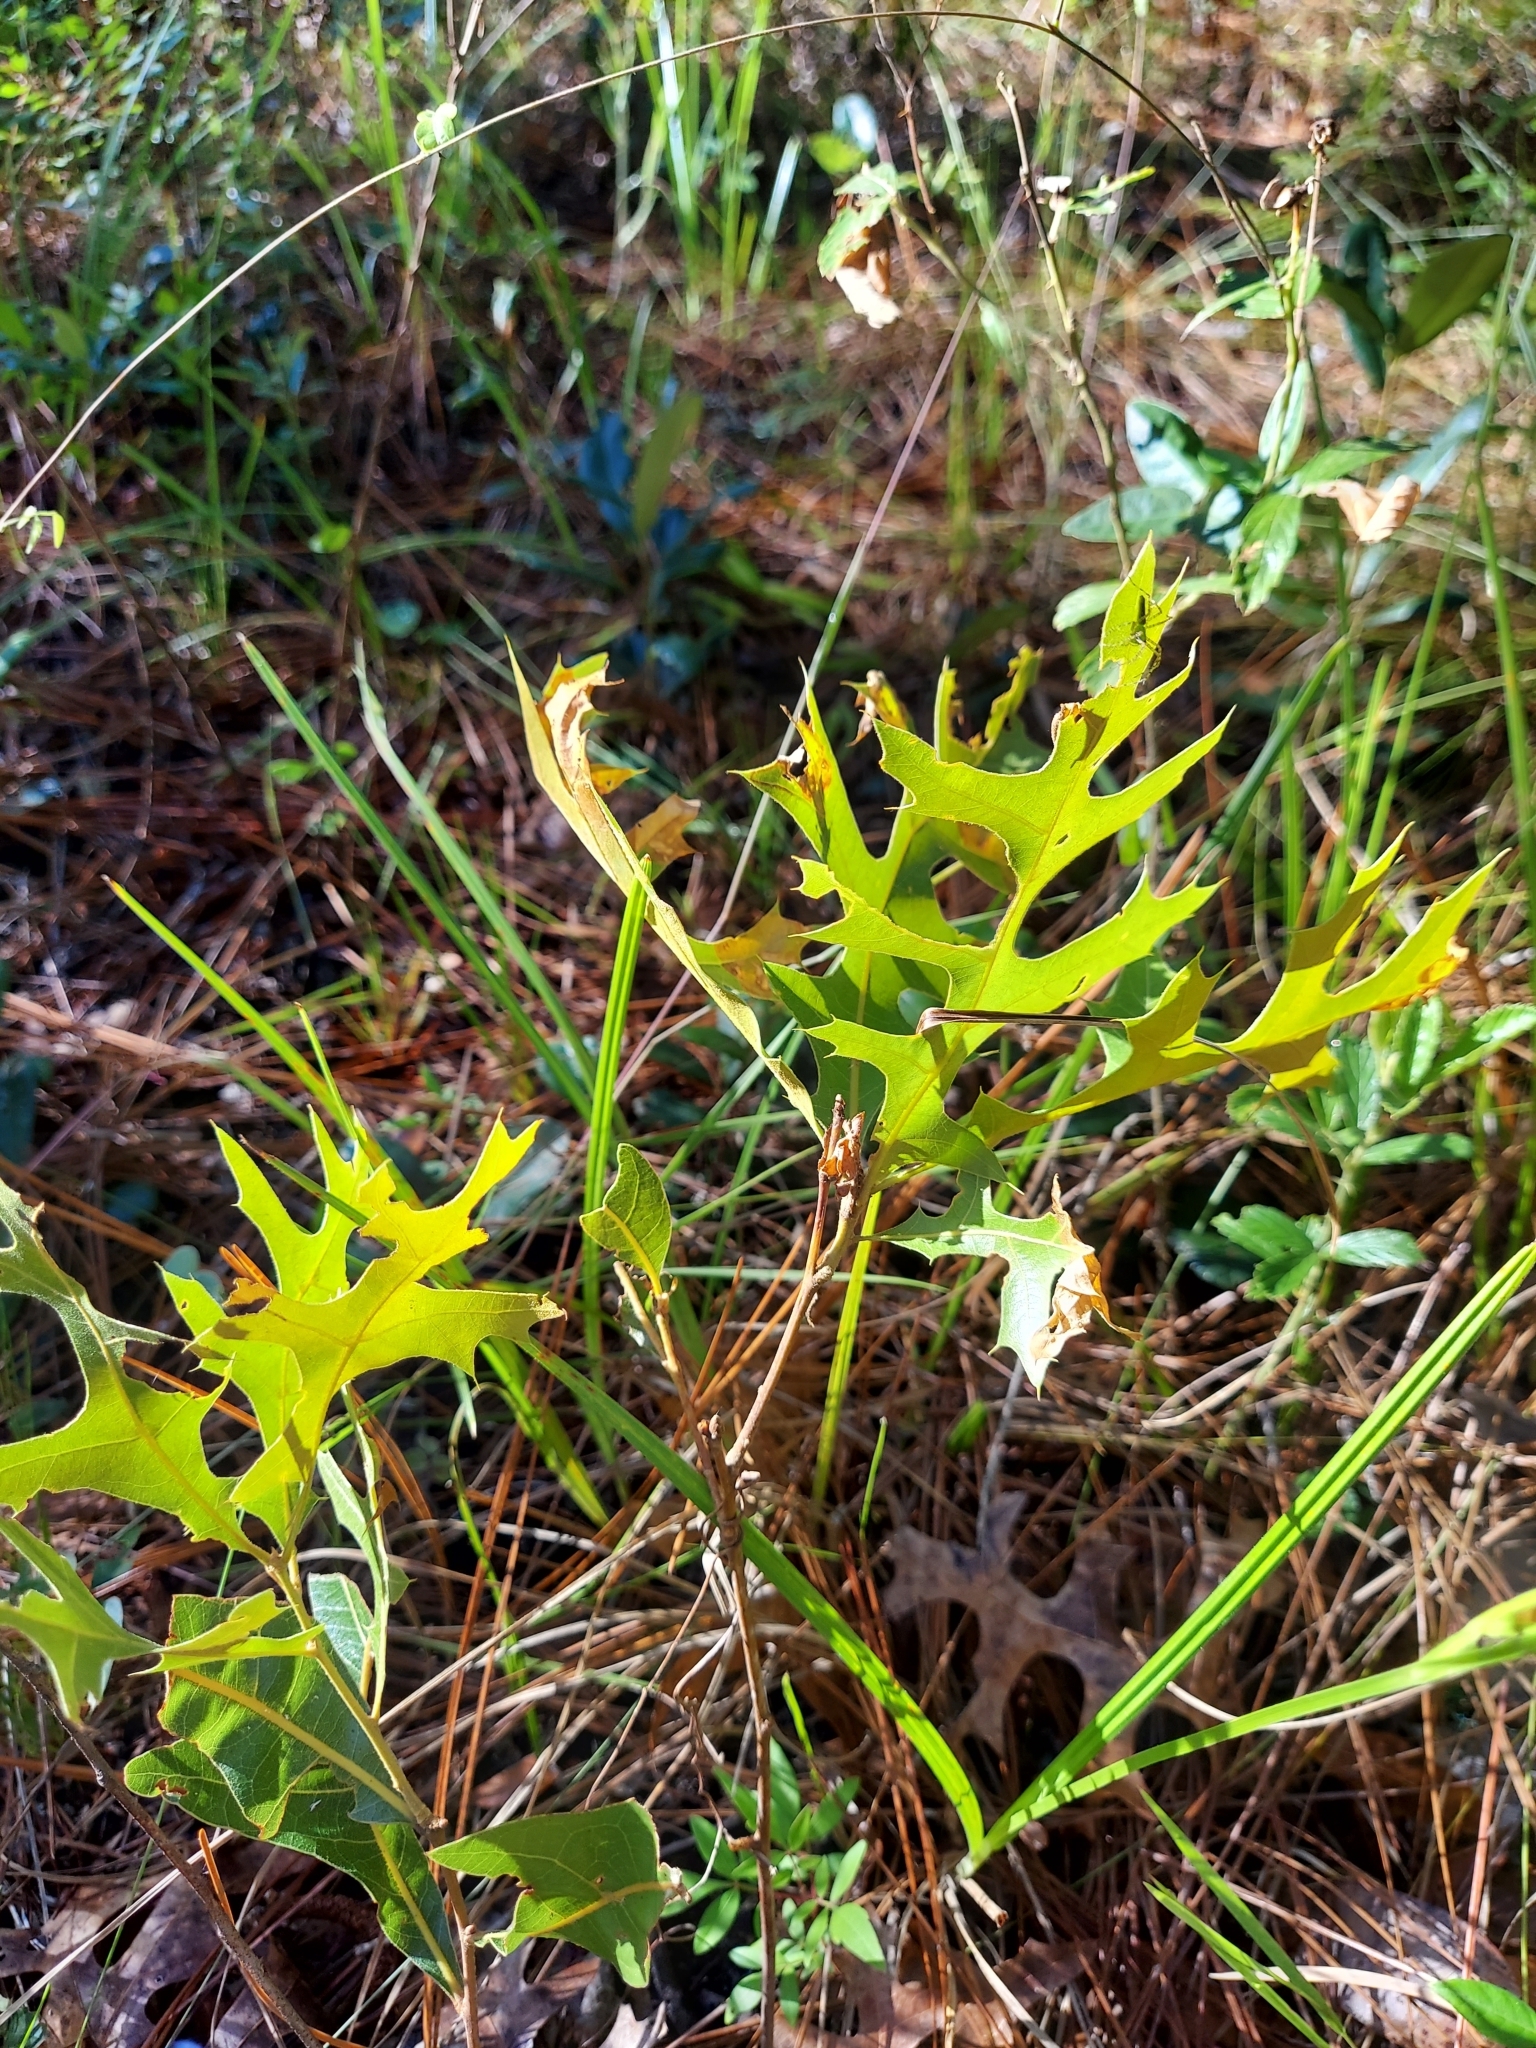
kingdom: Plantae
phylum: Tracheophyta
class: Magnoliopsida
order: Fagales
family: Fagaceae
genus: Quercus
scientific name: Quercus laevis
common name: Turkey oak
